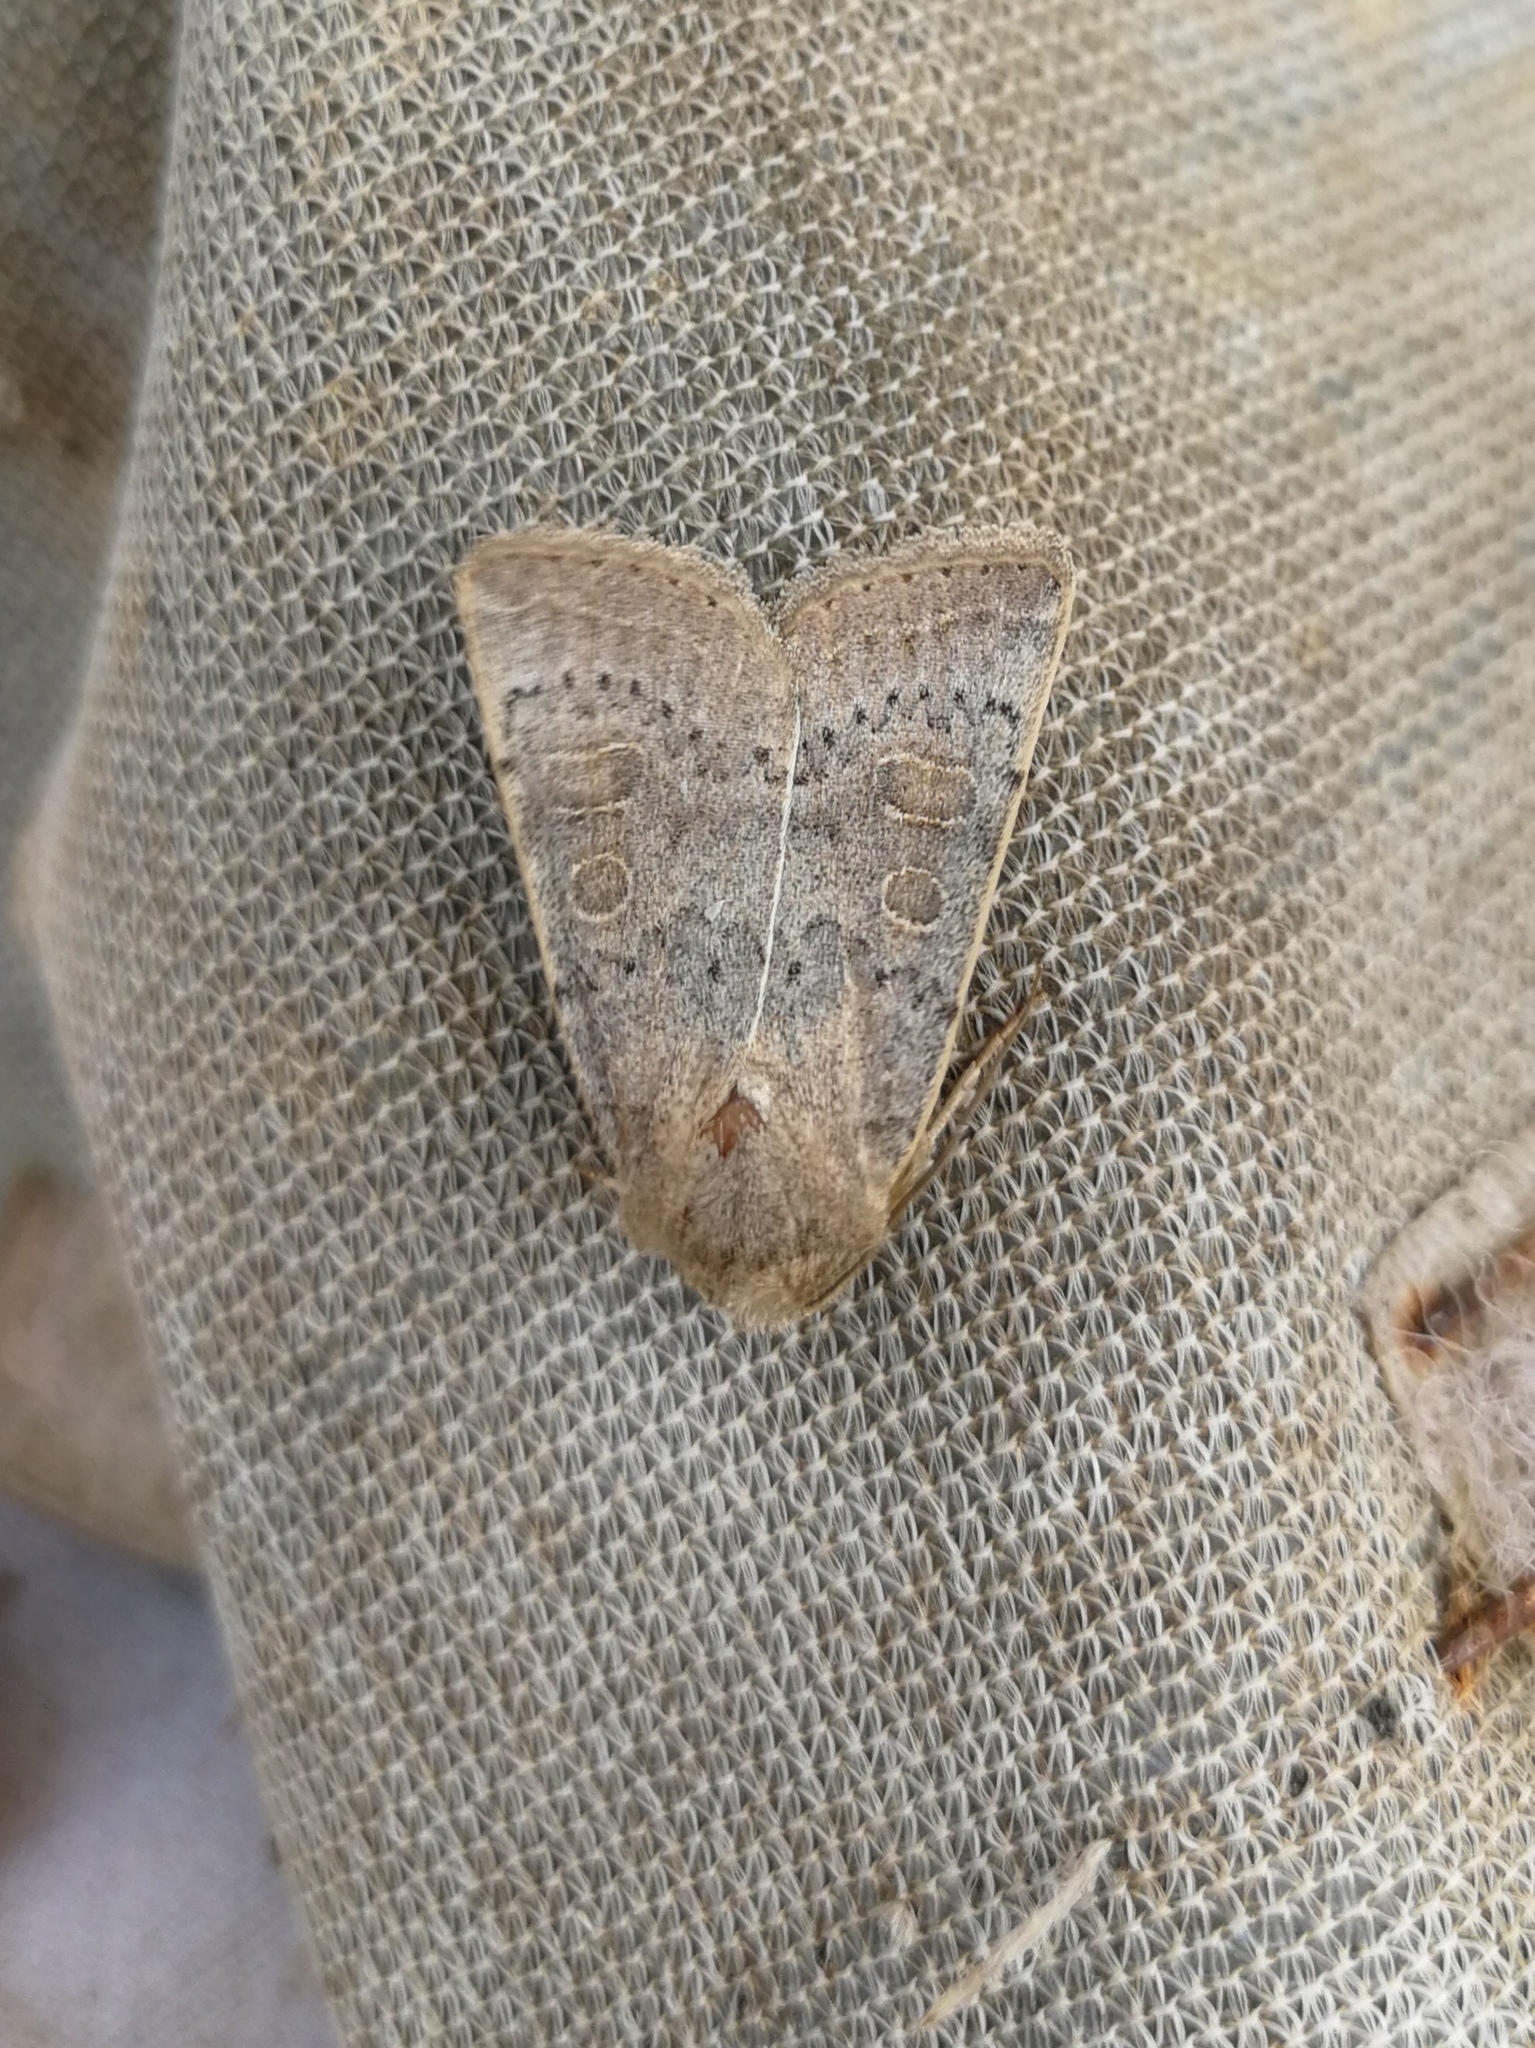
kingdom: Animalia
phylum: Arthropoda
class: Insecta
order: Lepidoptera
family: Noctuidae
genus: Hoplodrina
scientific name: Hoplodrina ambigua
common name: Vine's rustic
